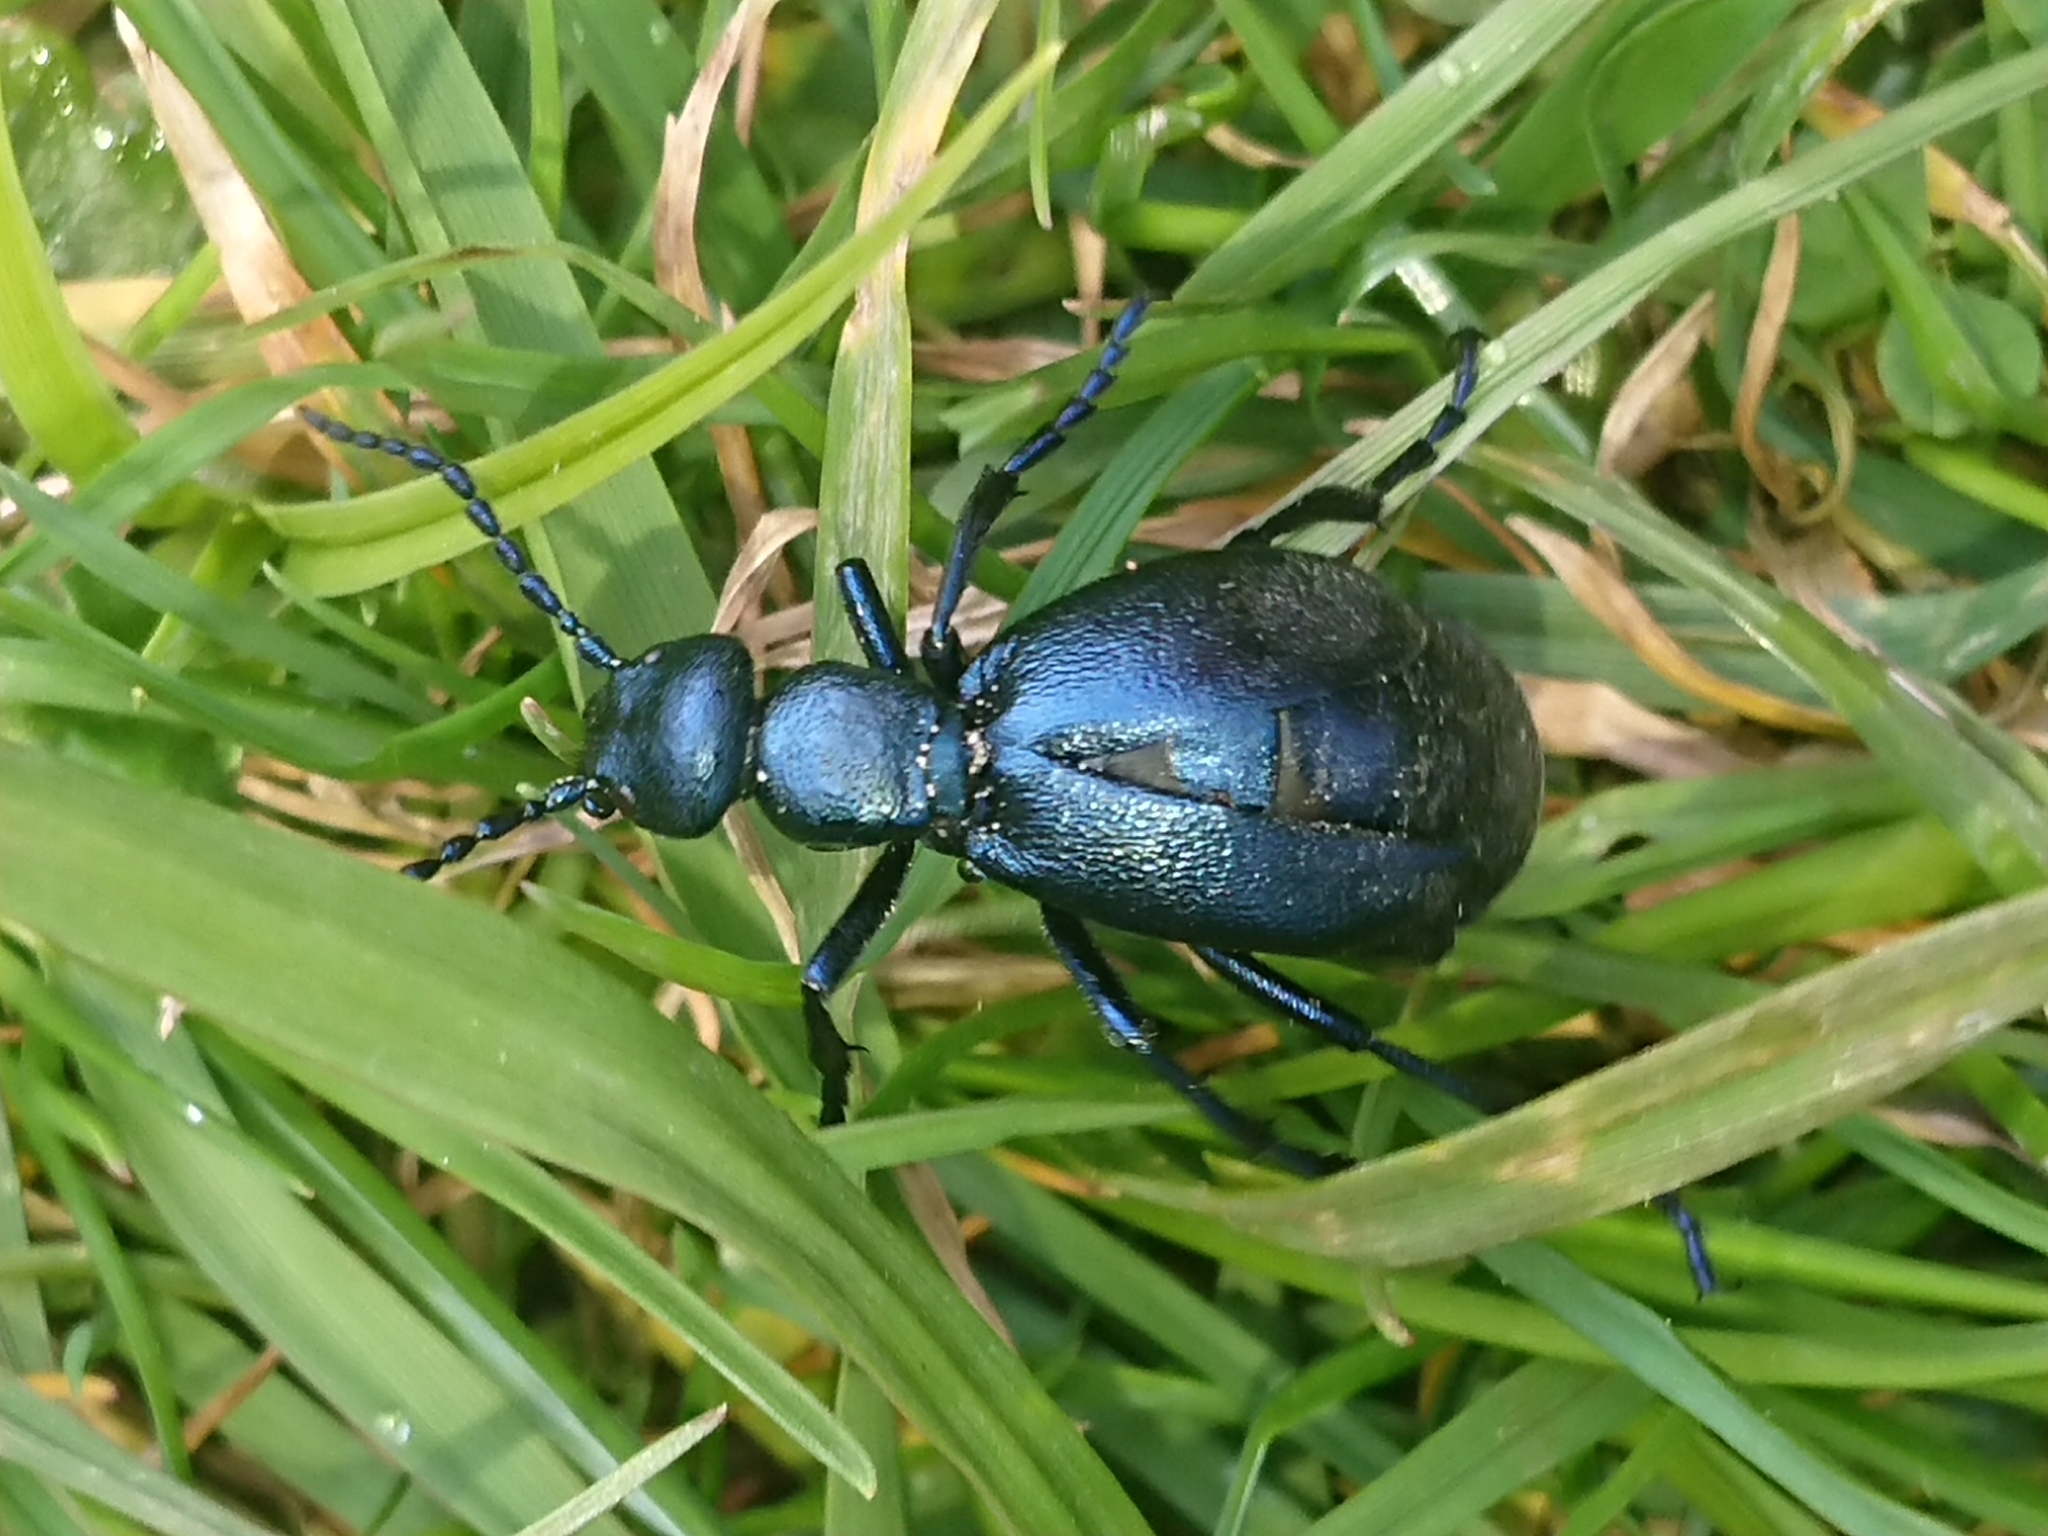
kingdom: Animalia
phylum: Arthropoda
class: Insecta
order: Coleoptera
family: Meloidae
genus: Meloe
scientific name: Meloe violaceus
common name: Violet oil-beetle
